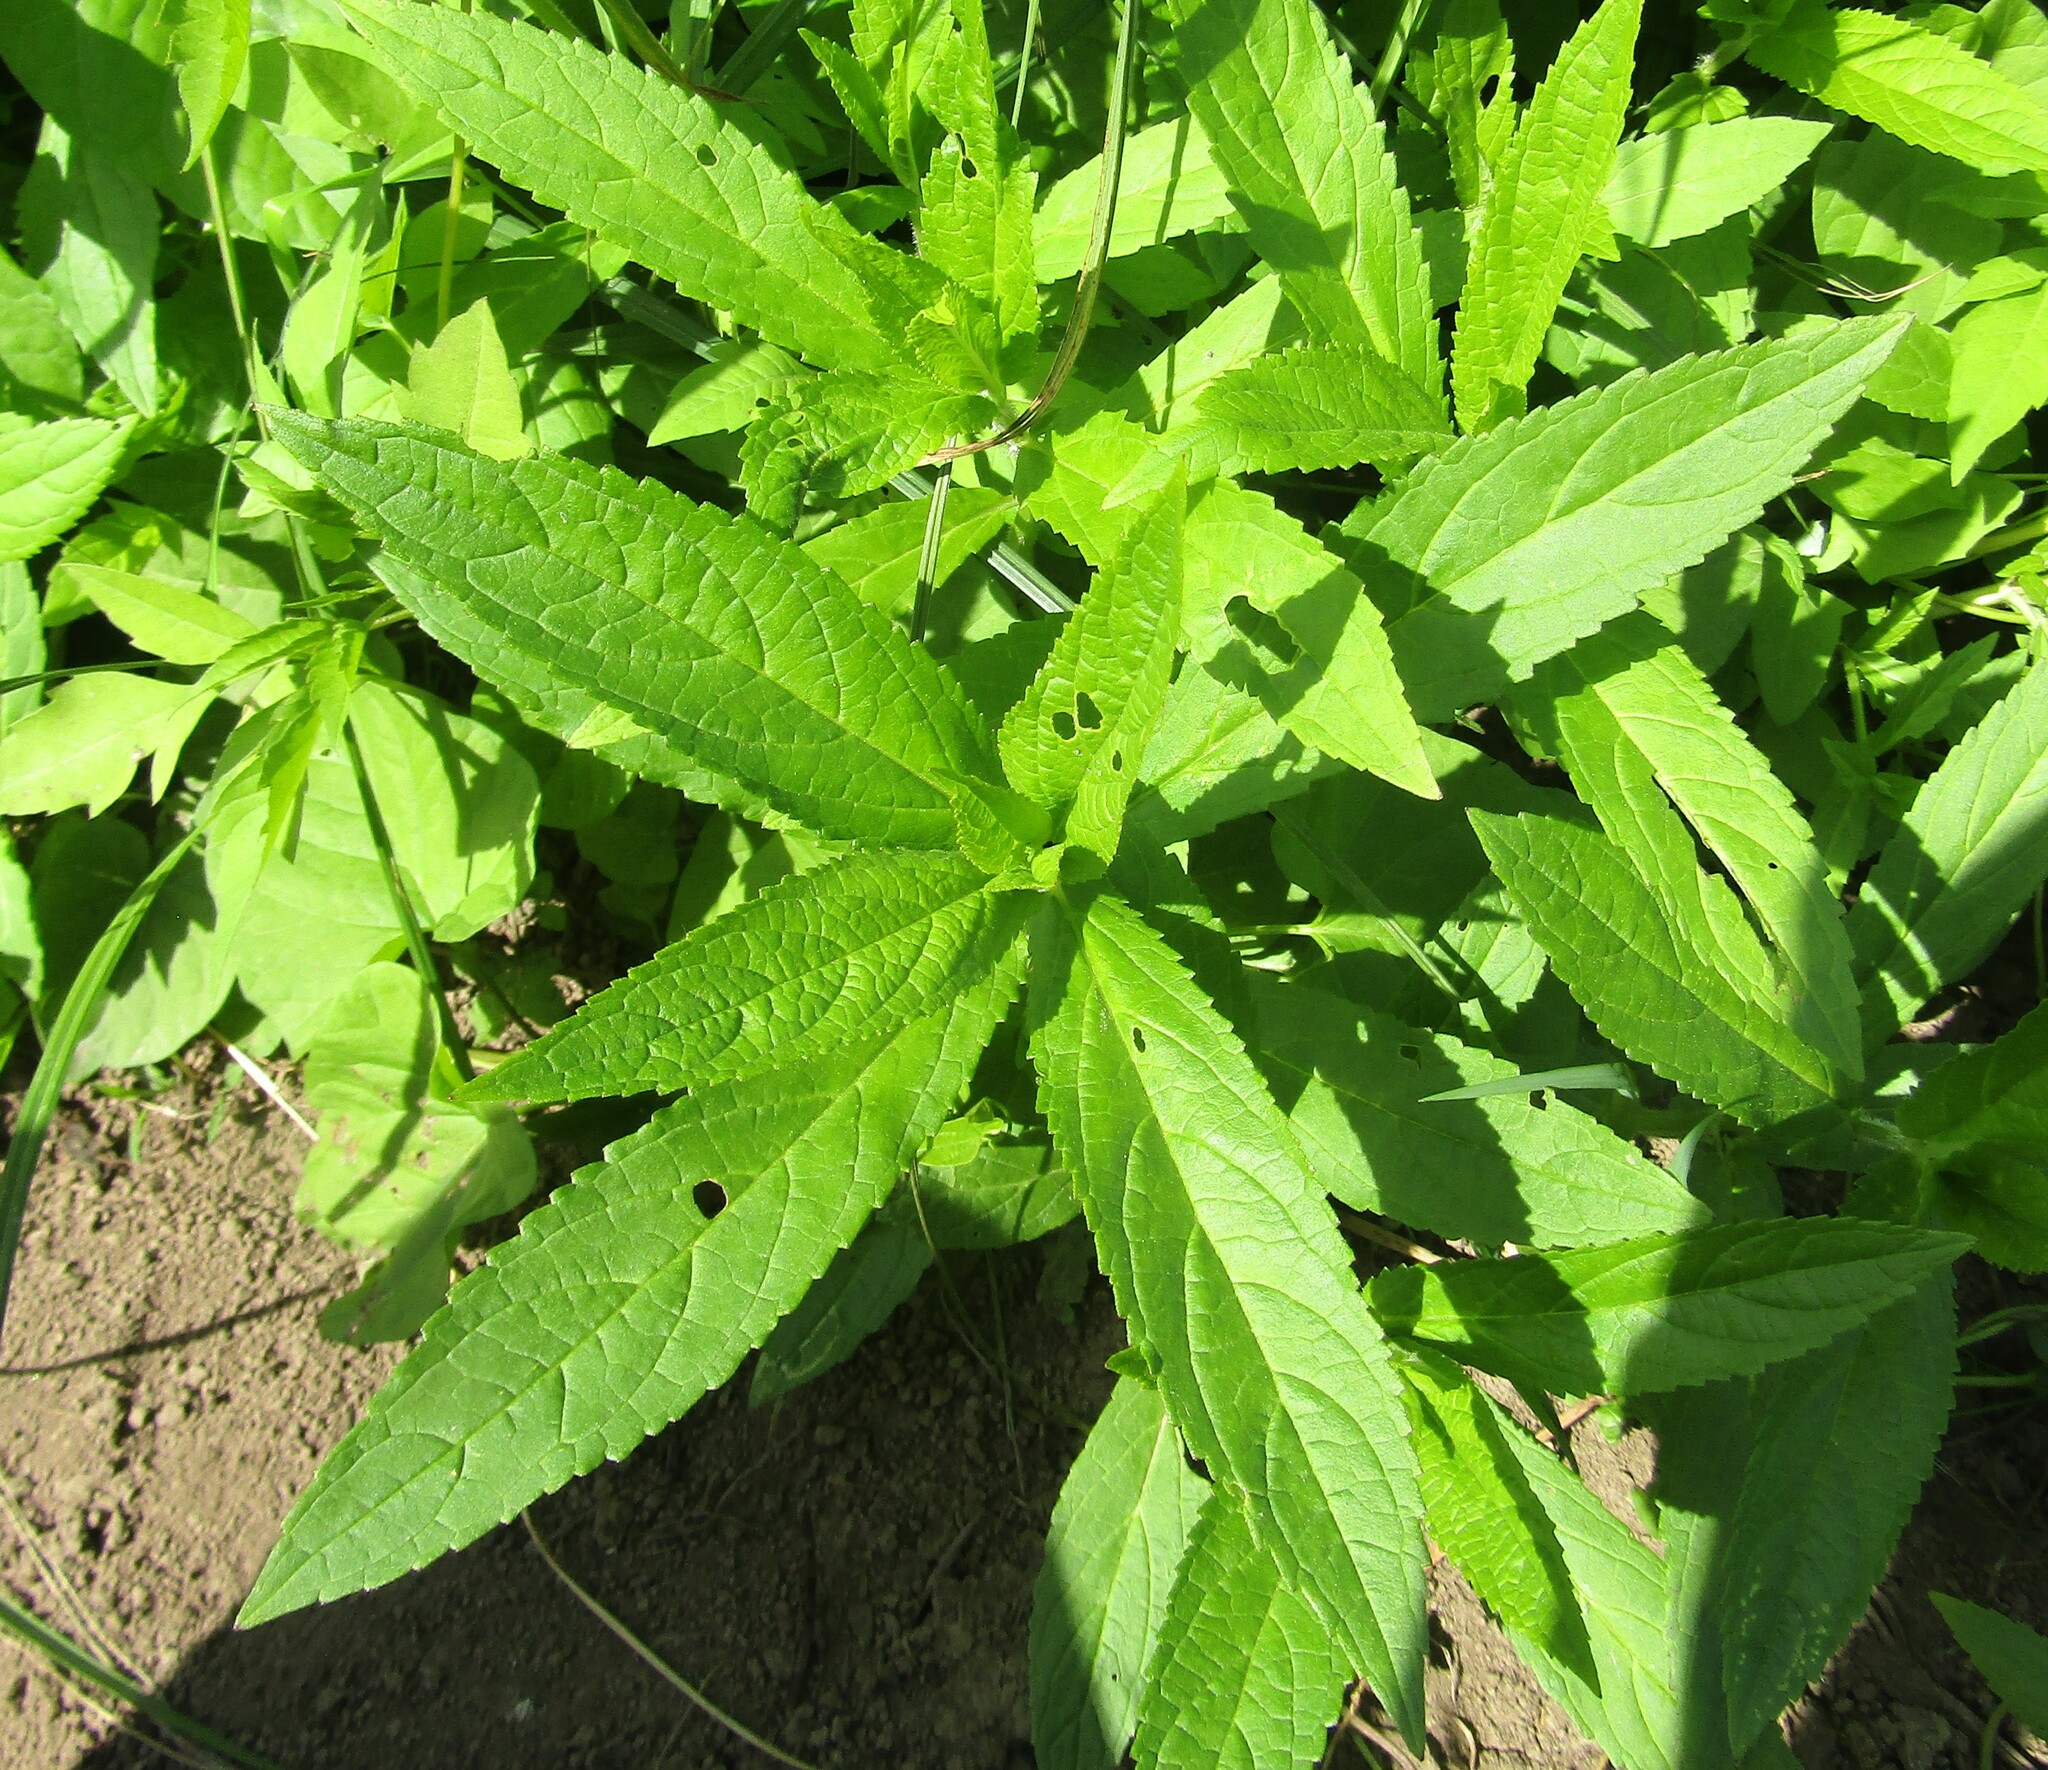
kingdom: Plantae
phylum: Tracheophyta
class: Magnoliopsida
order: Lamiales
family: Lamiaceae
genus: Stachys
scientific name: Stachys palustris
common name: Marsh woundwort
